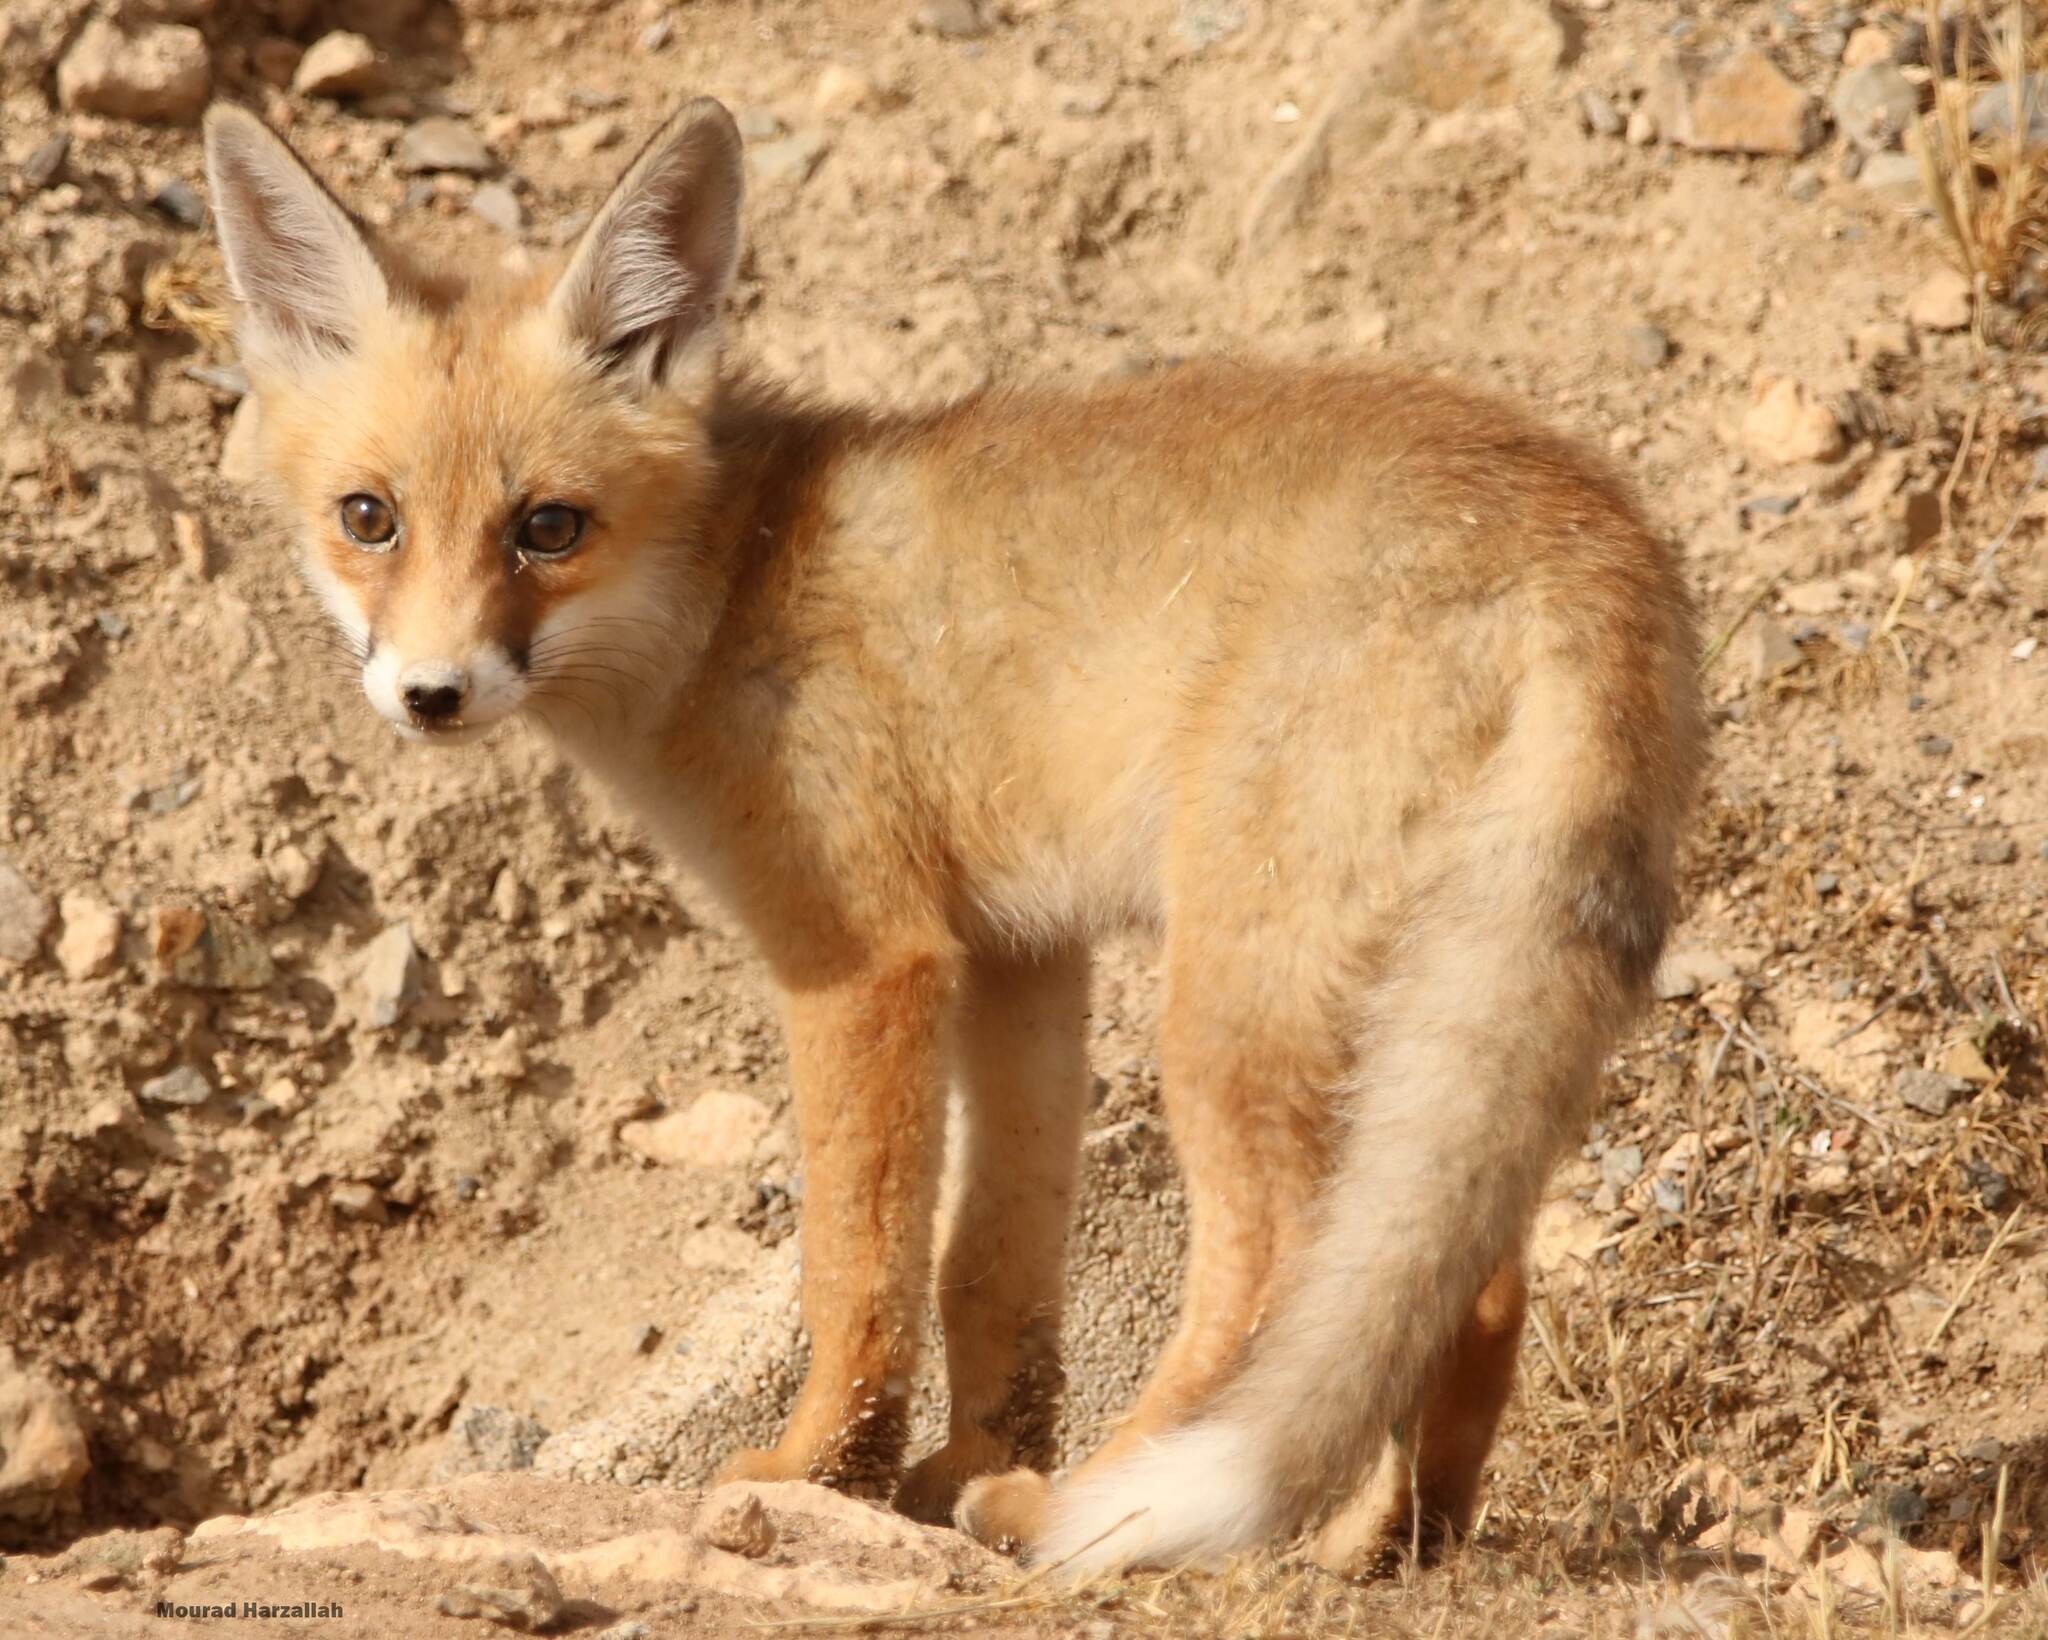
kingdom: Animalia
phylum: Chordata
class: Mammalia
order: Carnivora
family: Canidae
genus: Vulpes
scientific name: Vulpes vulpes
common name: Red fox
